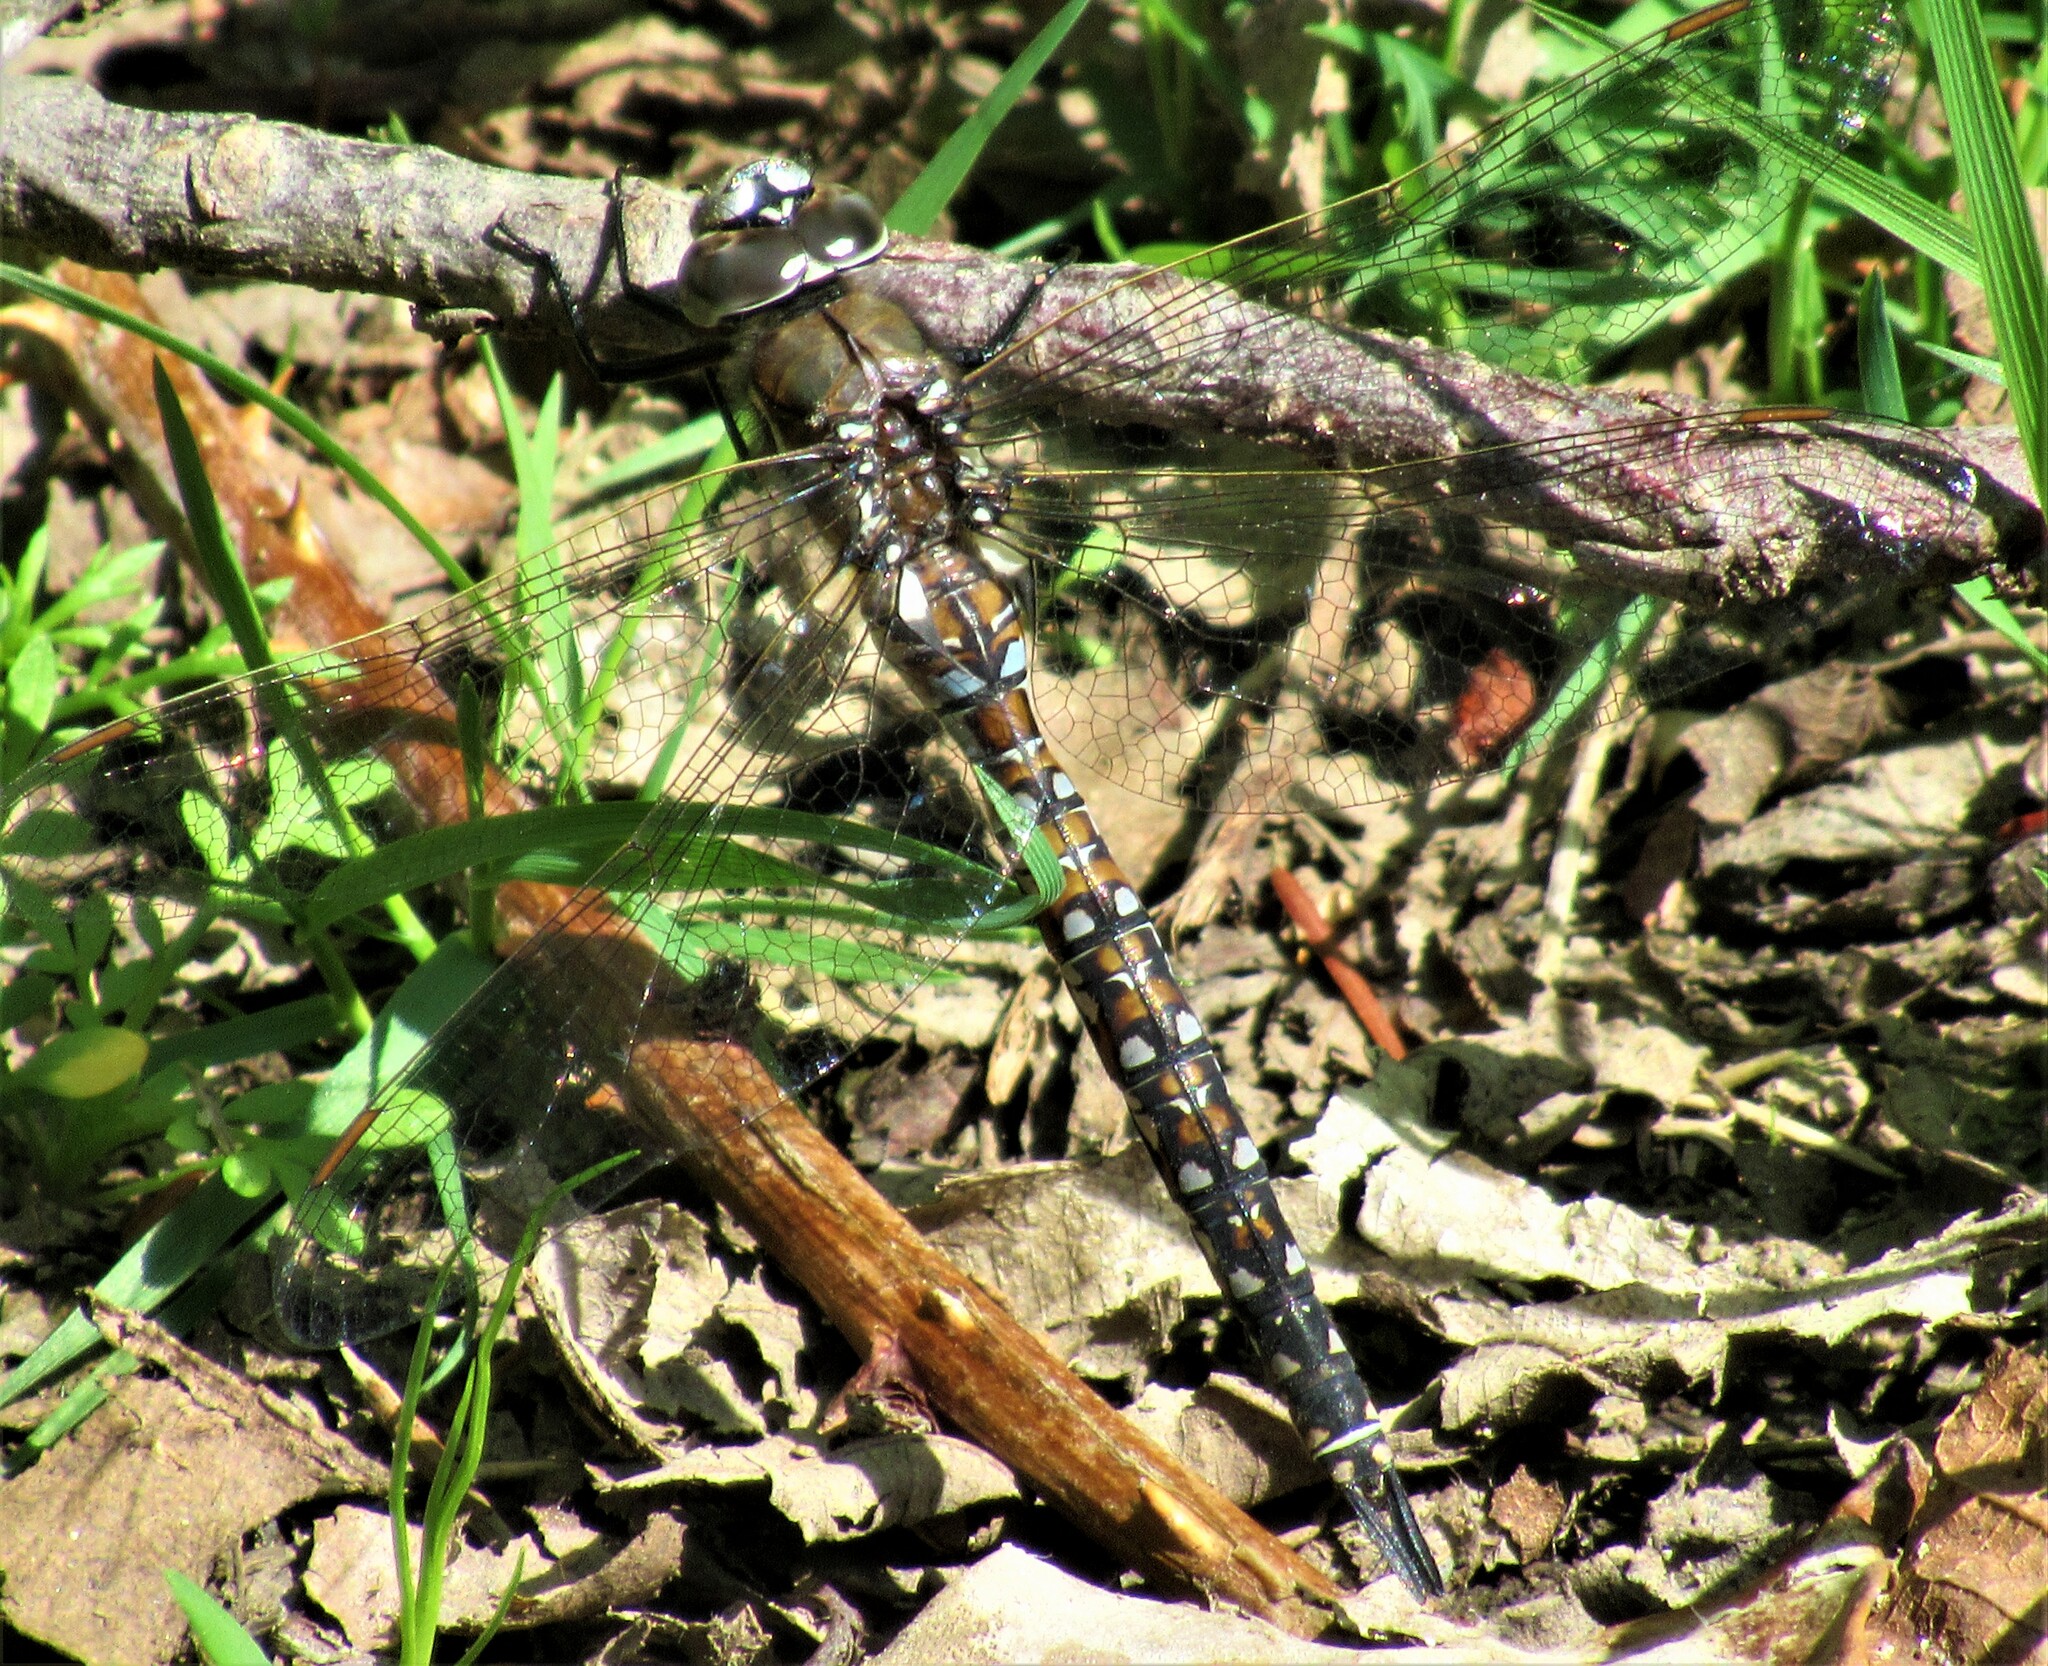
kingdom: Animalia
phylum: Arthropoda
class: Insecta
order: Odonata
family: Aeshnidae
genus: Rhionaeschna
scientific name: Rhionaeschna californica
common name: California darner
